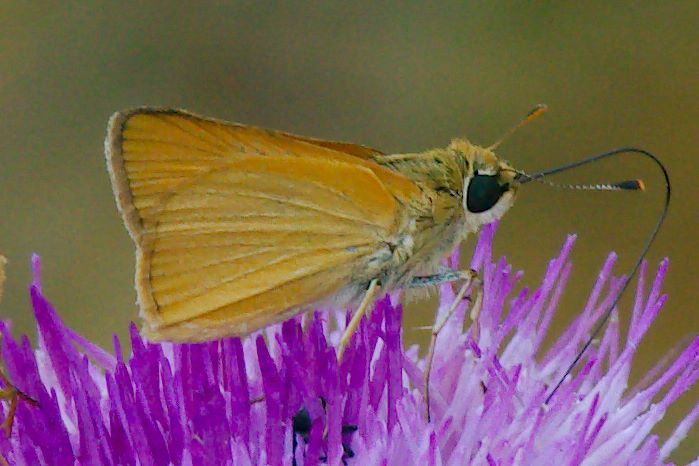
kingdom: Animalia
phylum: Arthropoda
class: Insecta
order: Lepidoptera
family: Hesperiidae
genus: Atrytone
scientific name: Atrytone delaware
